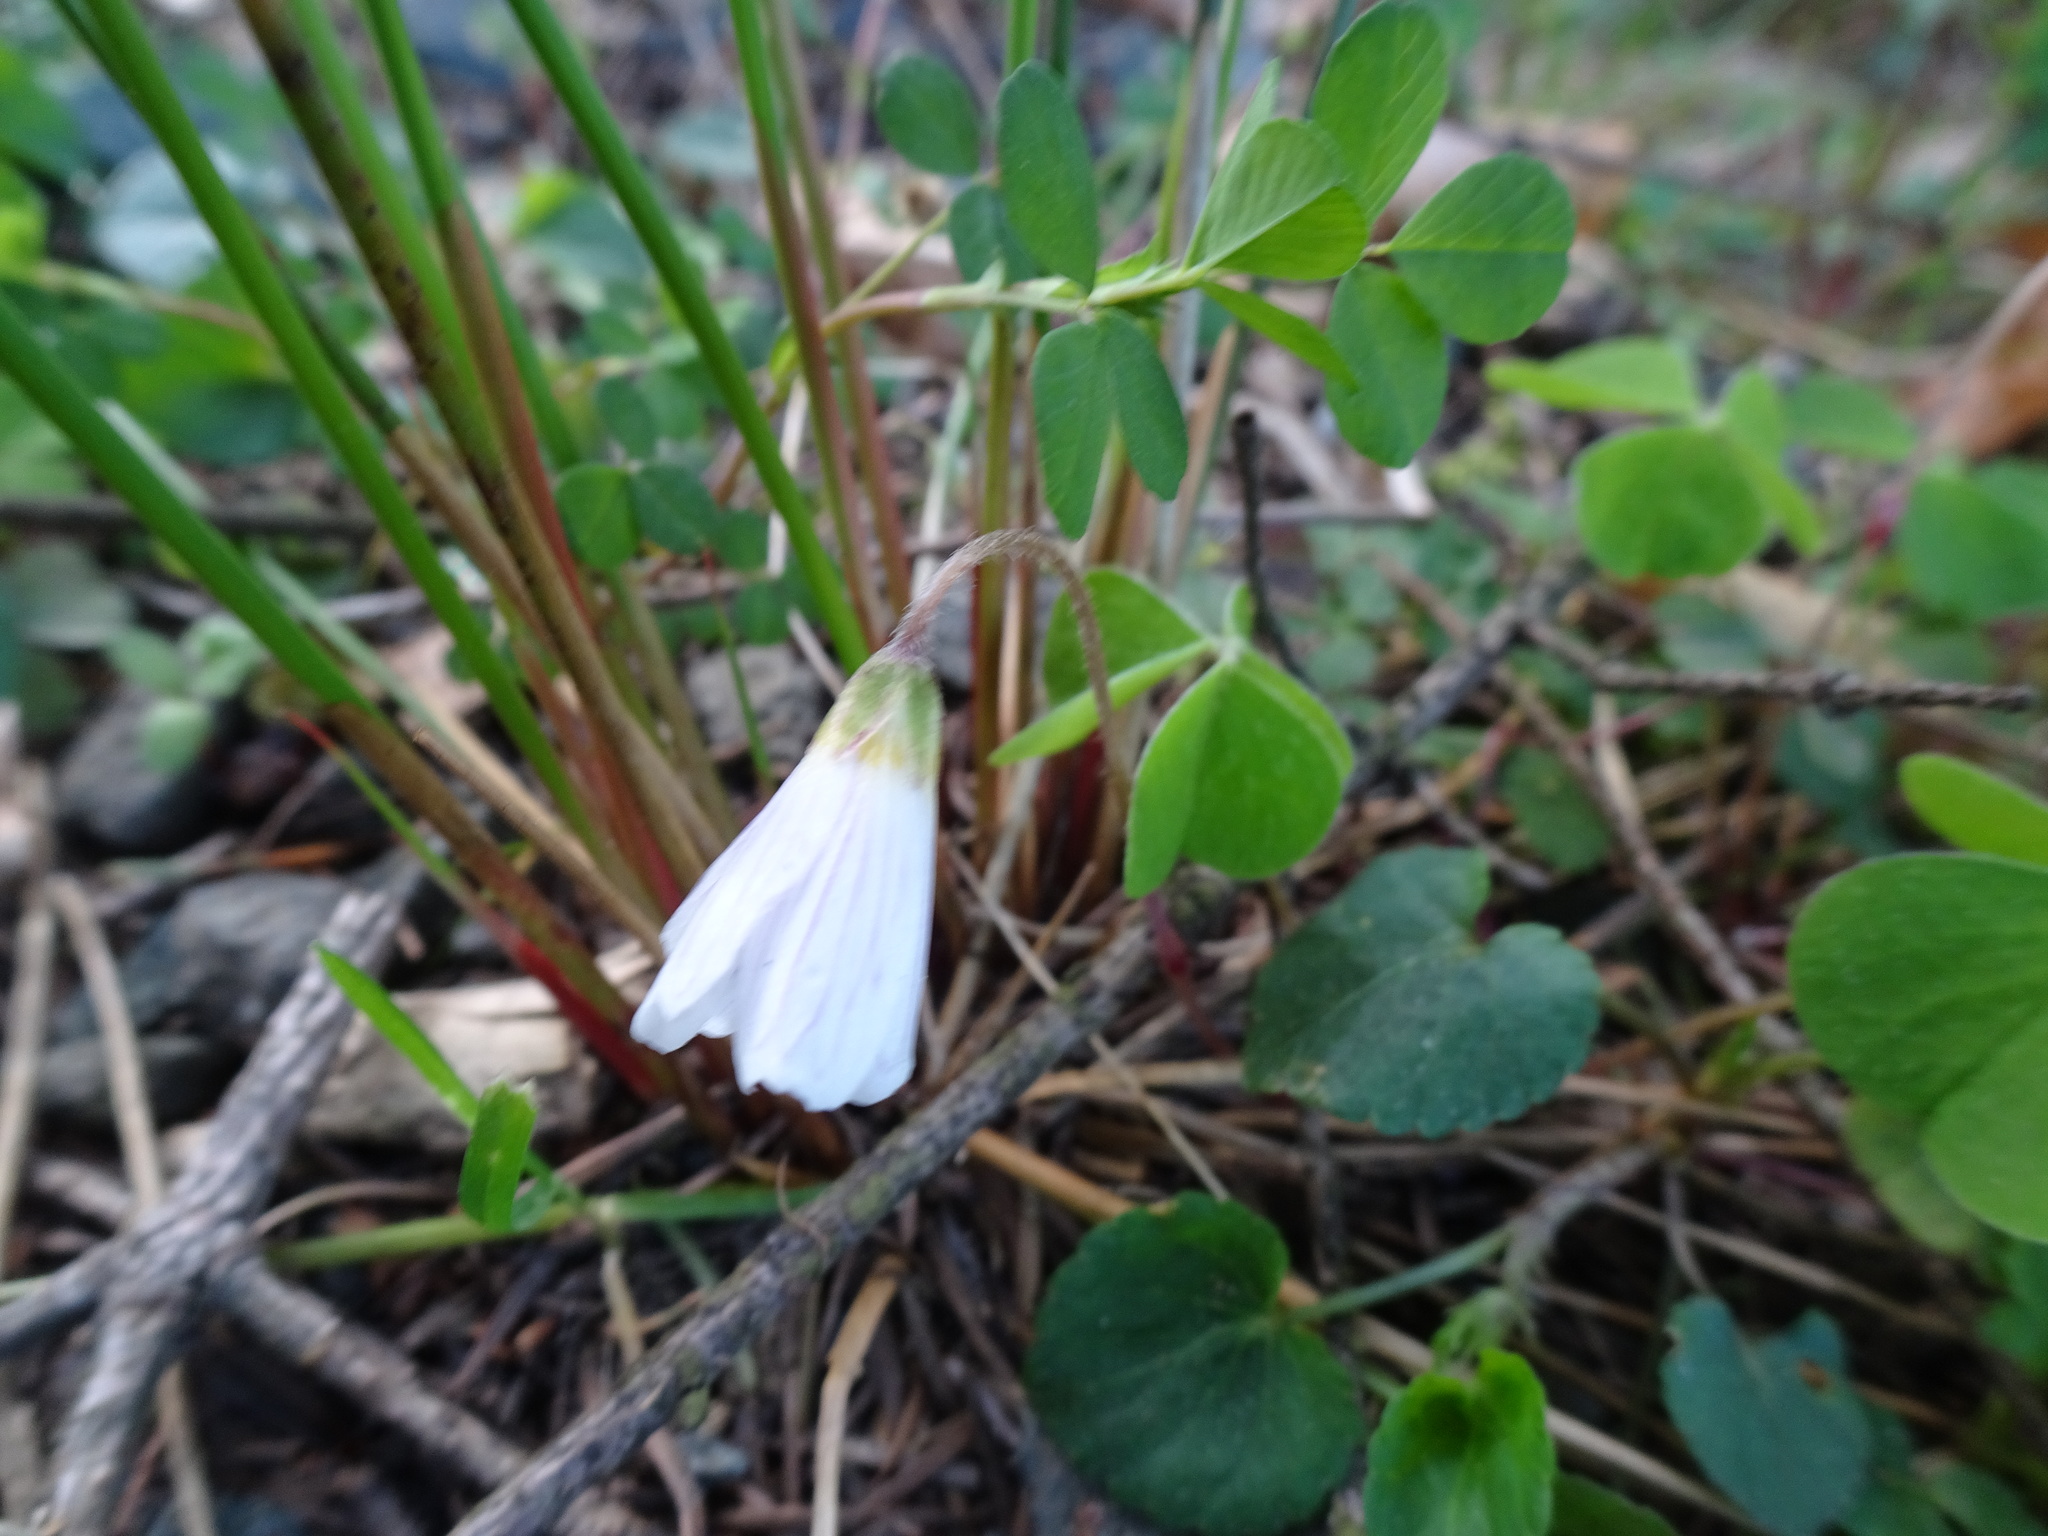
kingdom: Plantae
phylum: Tracheophyta
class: Magnoliopsida
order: Oxalidales
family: Oxalidaceae
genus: Oxalis
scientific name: Oxalis acetosella
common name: Wood-sorrel
